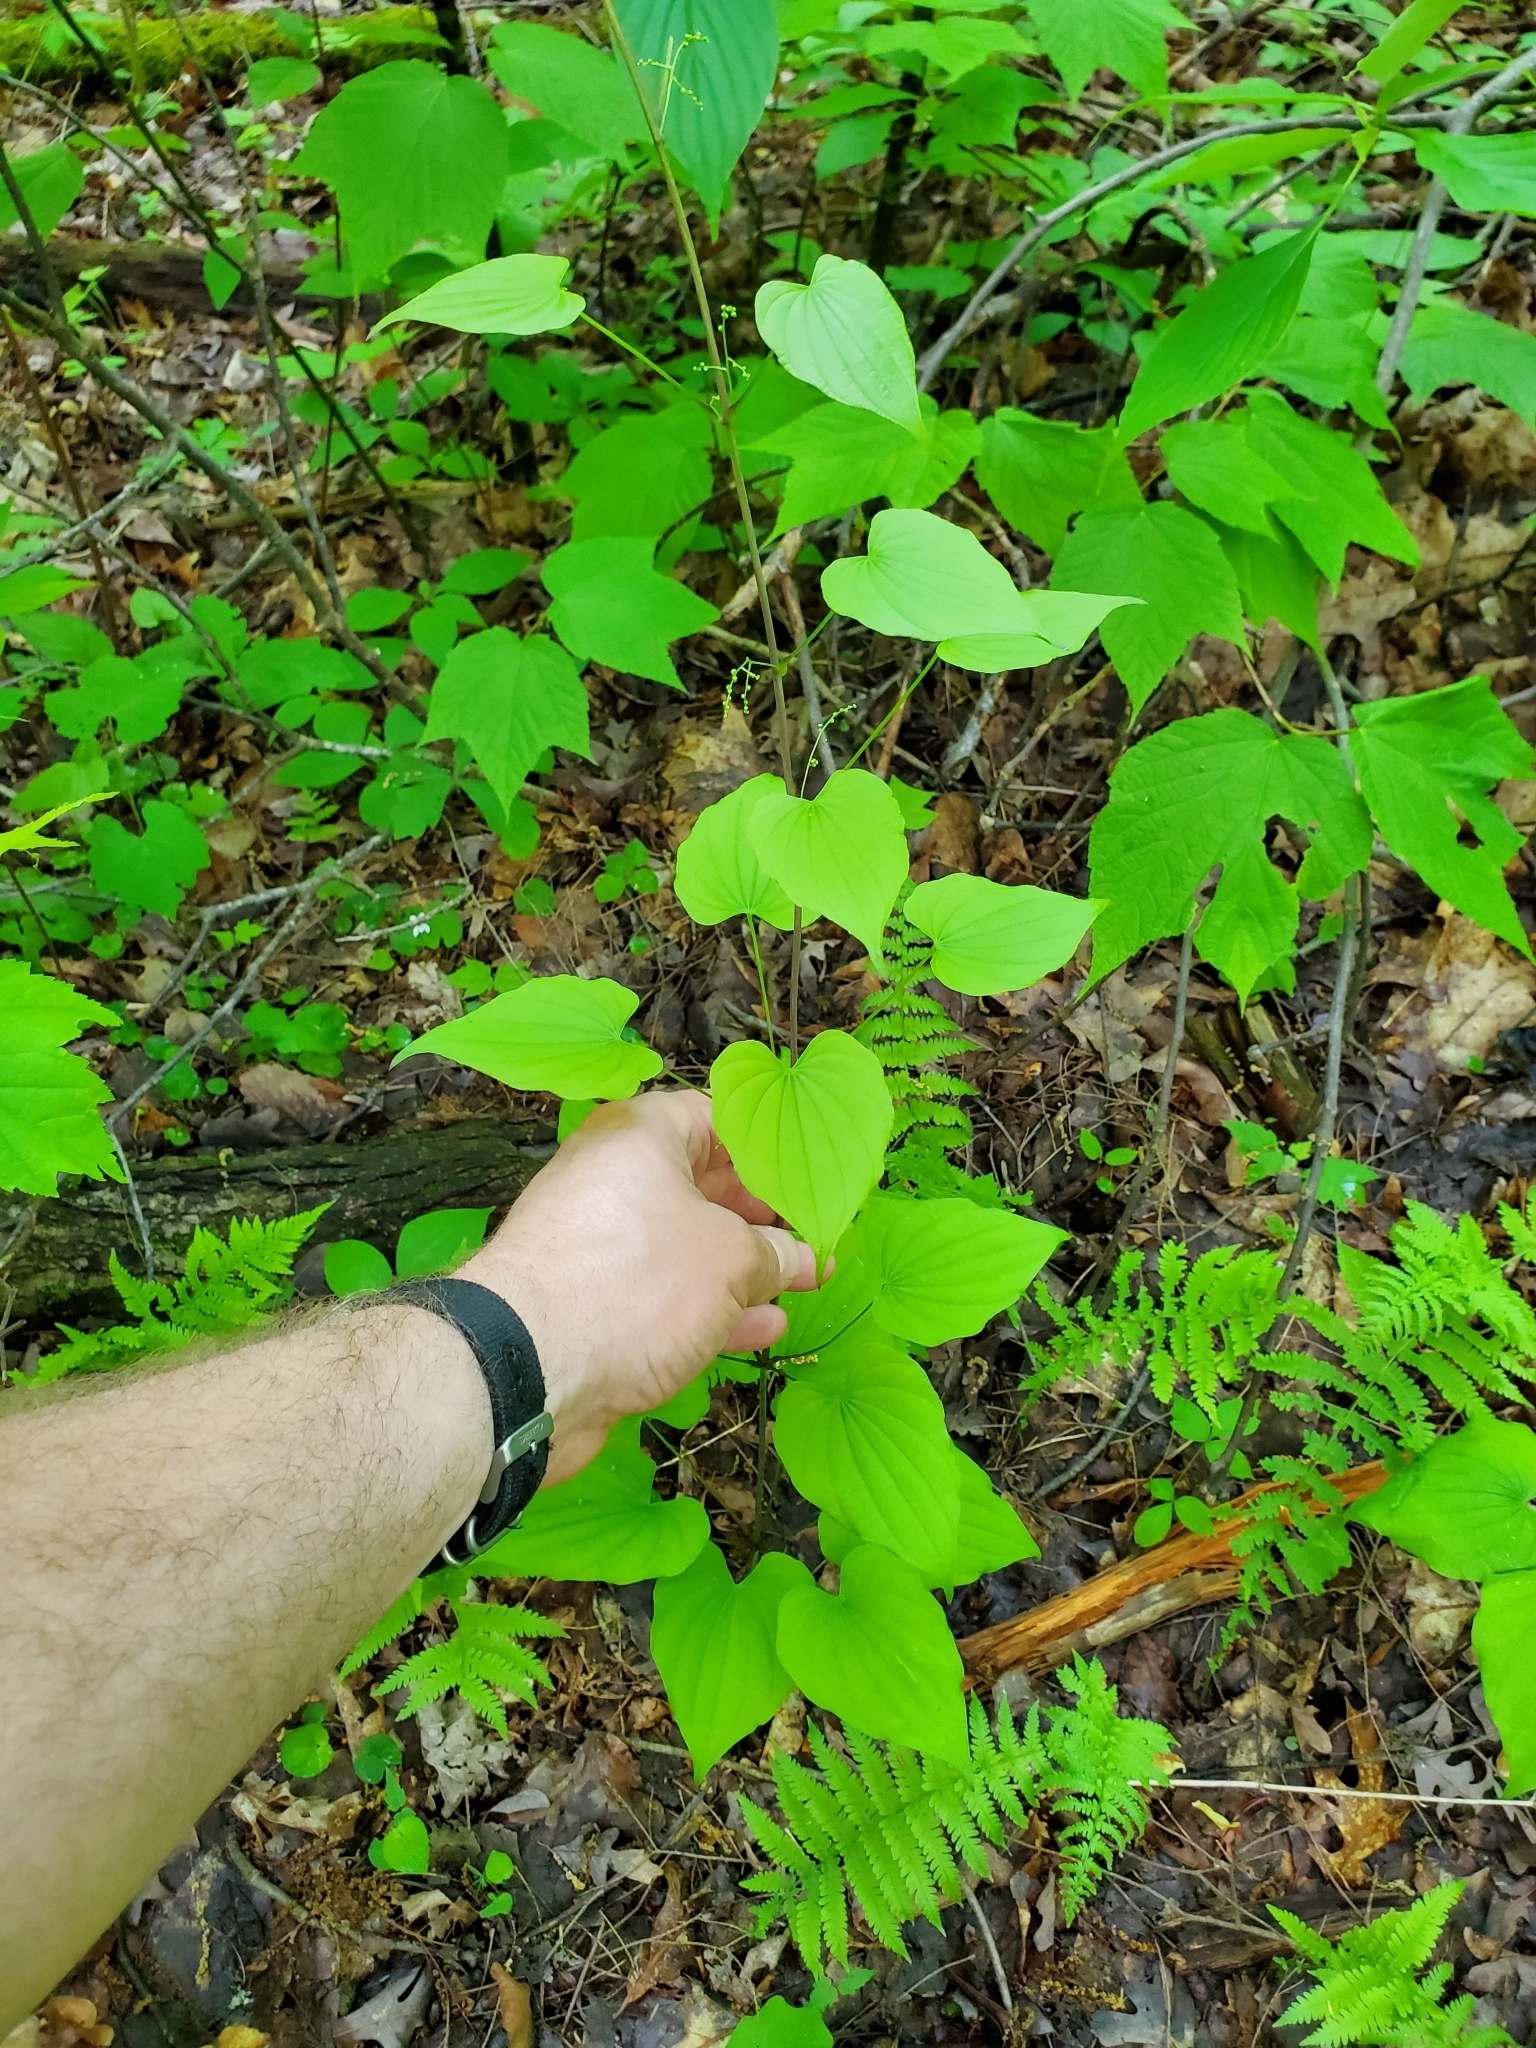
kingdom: Plantae
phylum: Tracheophyta
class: Liliopsida
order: Dioscoreales
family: Dioscoreaceae
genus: Dioscorea
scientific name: Dioscorea villosa
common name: Wild yam
